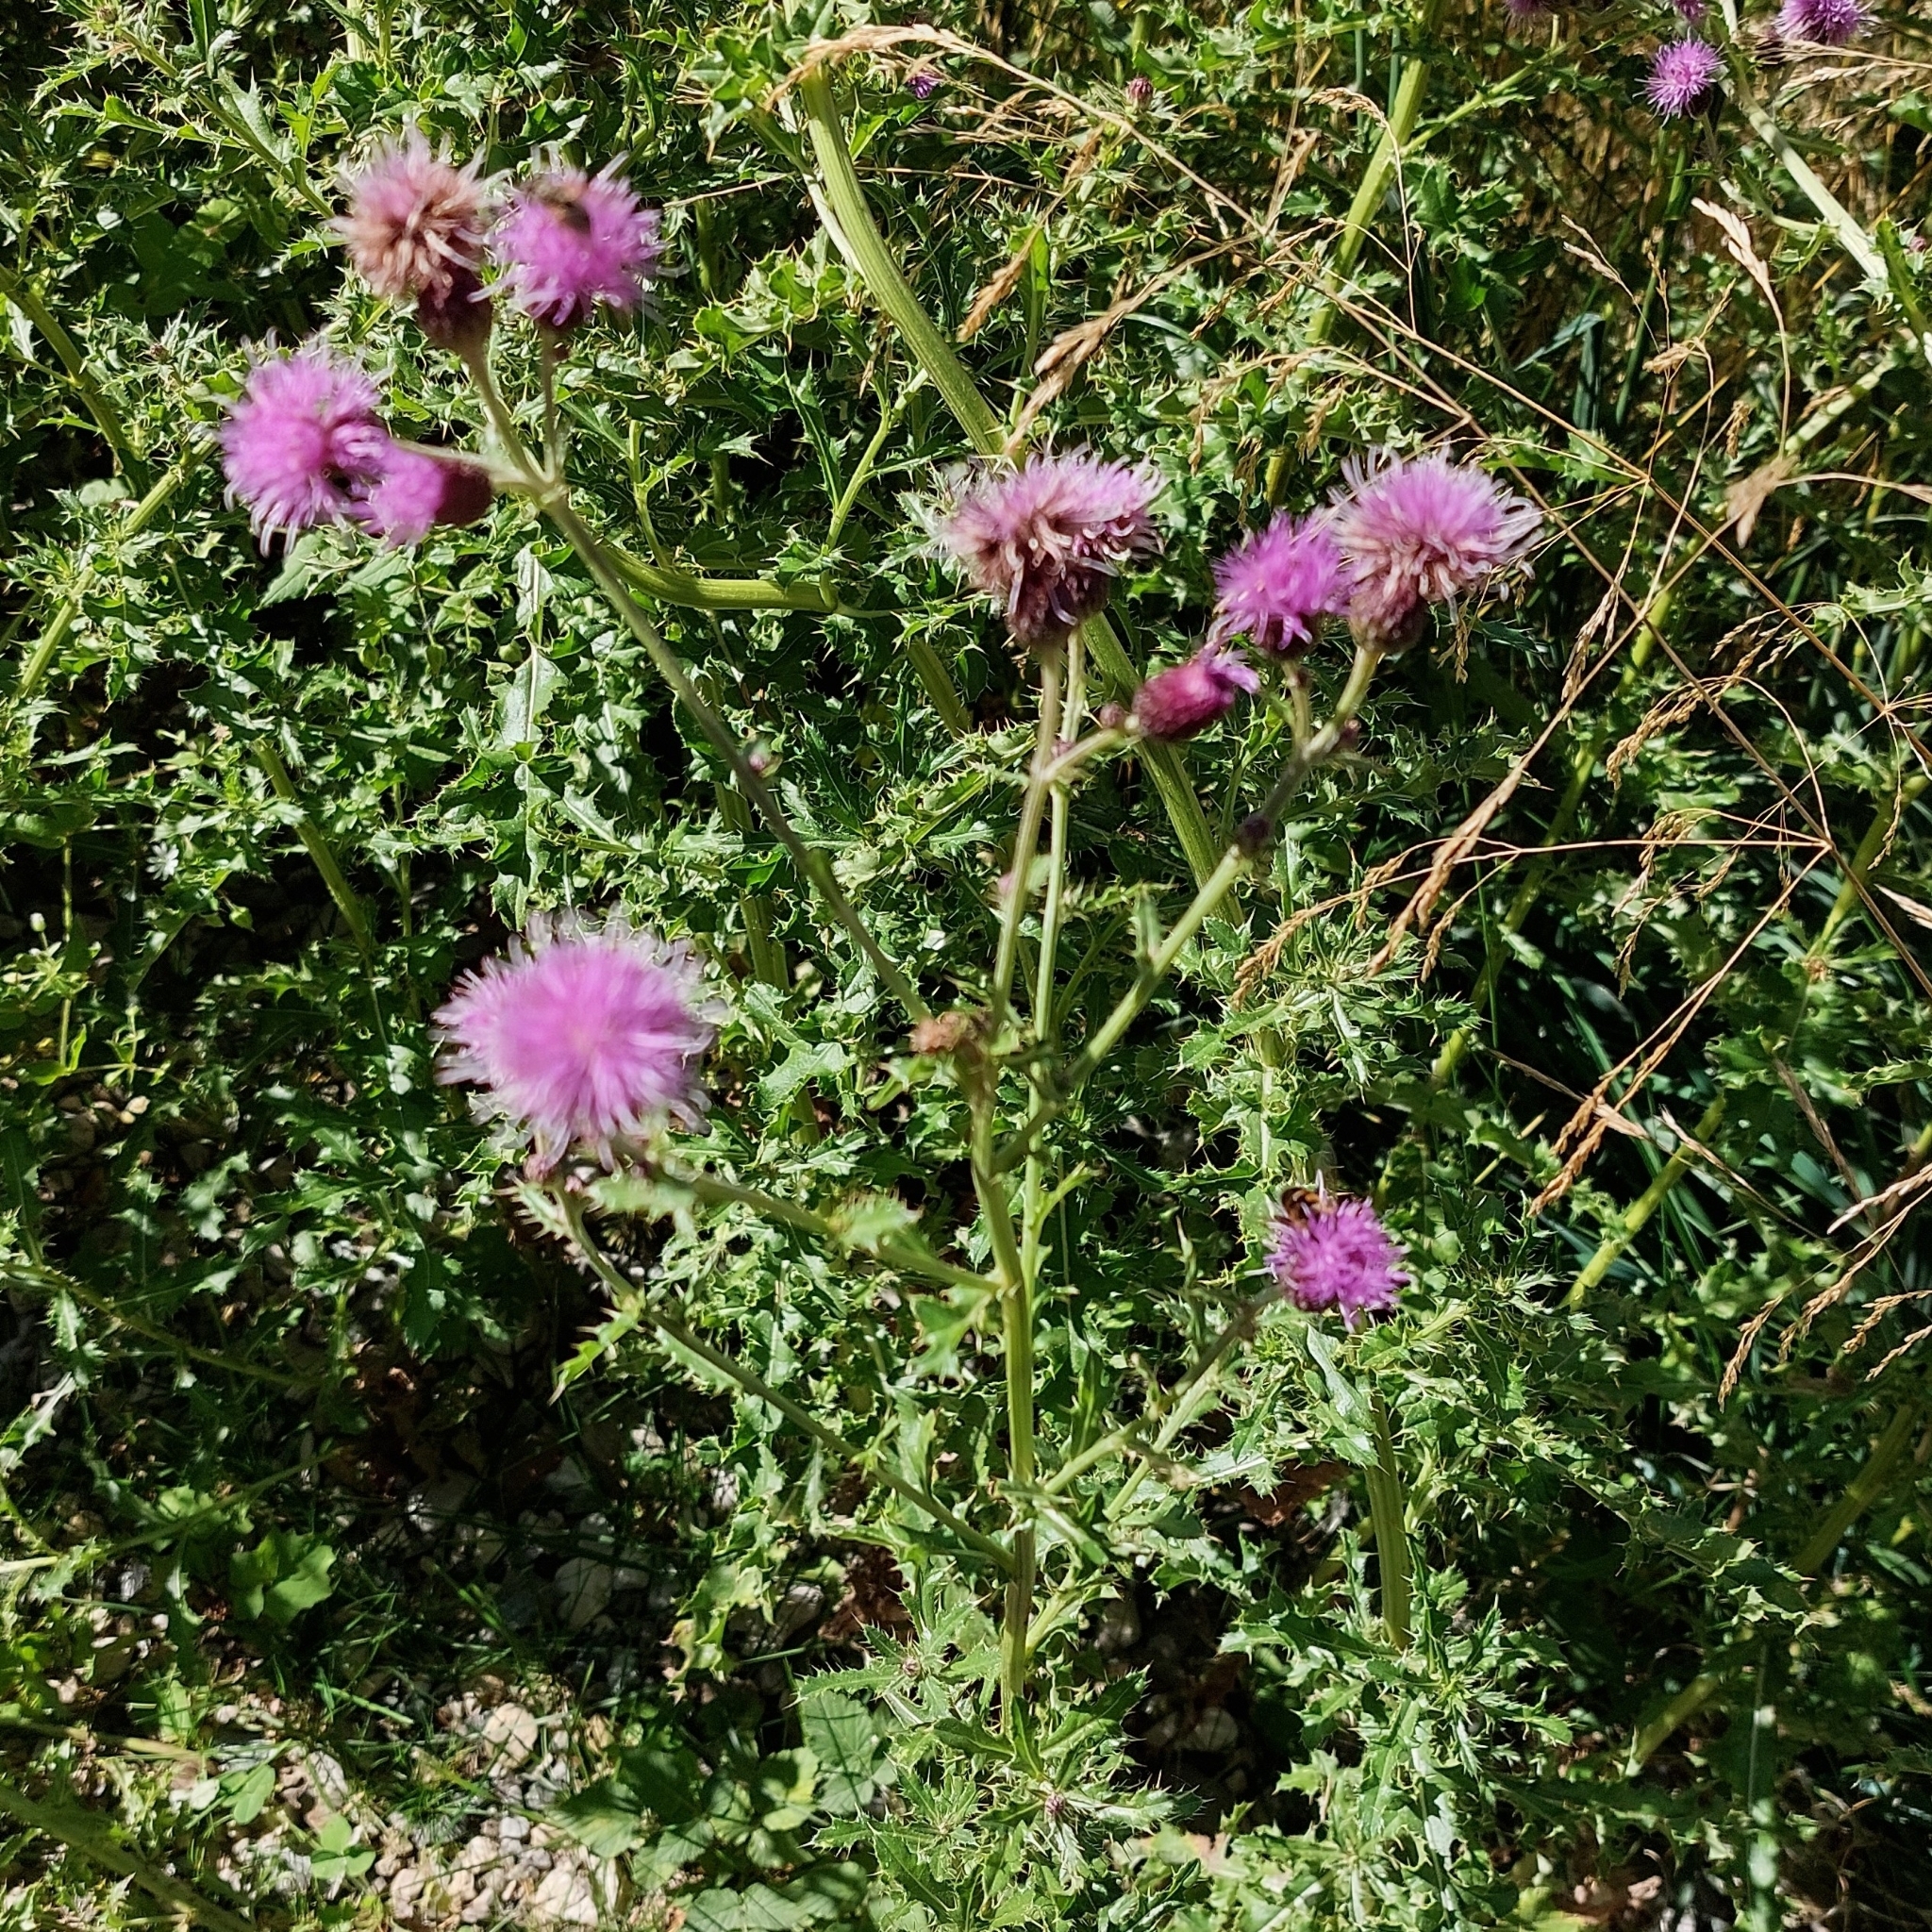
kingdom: Plantae
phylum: Tracheophyta
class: Magnoliopsida
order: Asterales
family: Asteraceae
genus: Cirsium
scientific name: Cirsium arvense
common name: Creeping thistle
